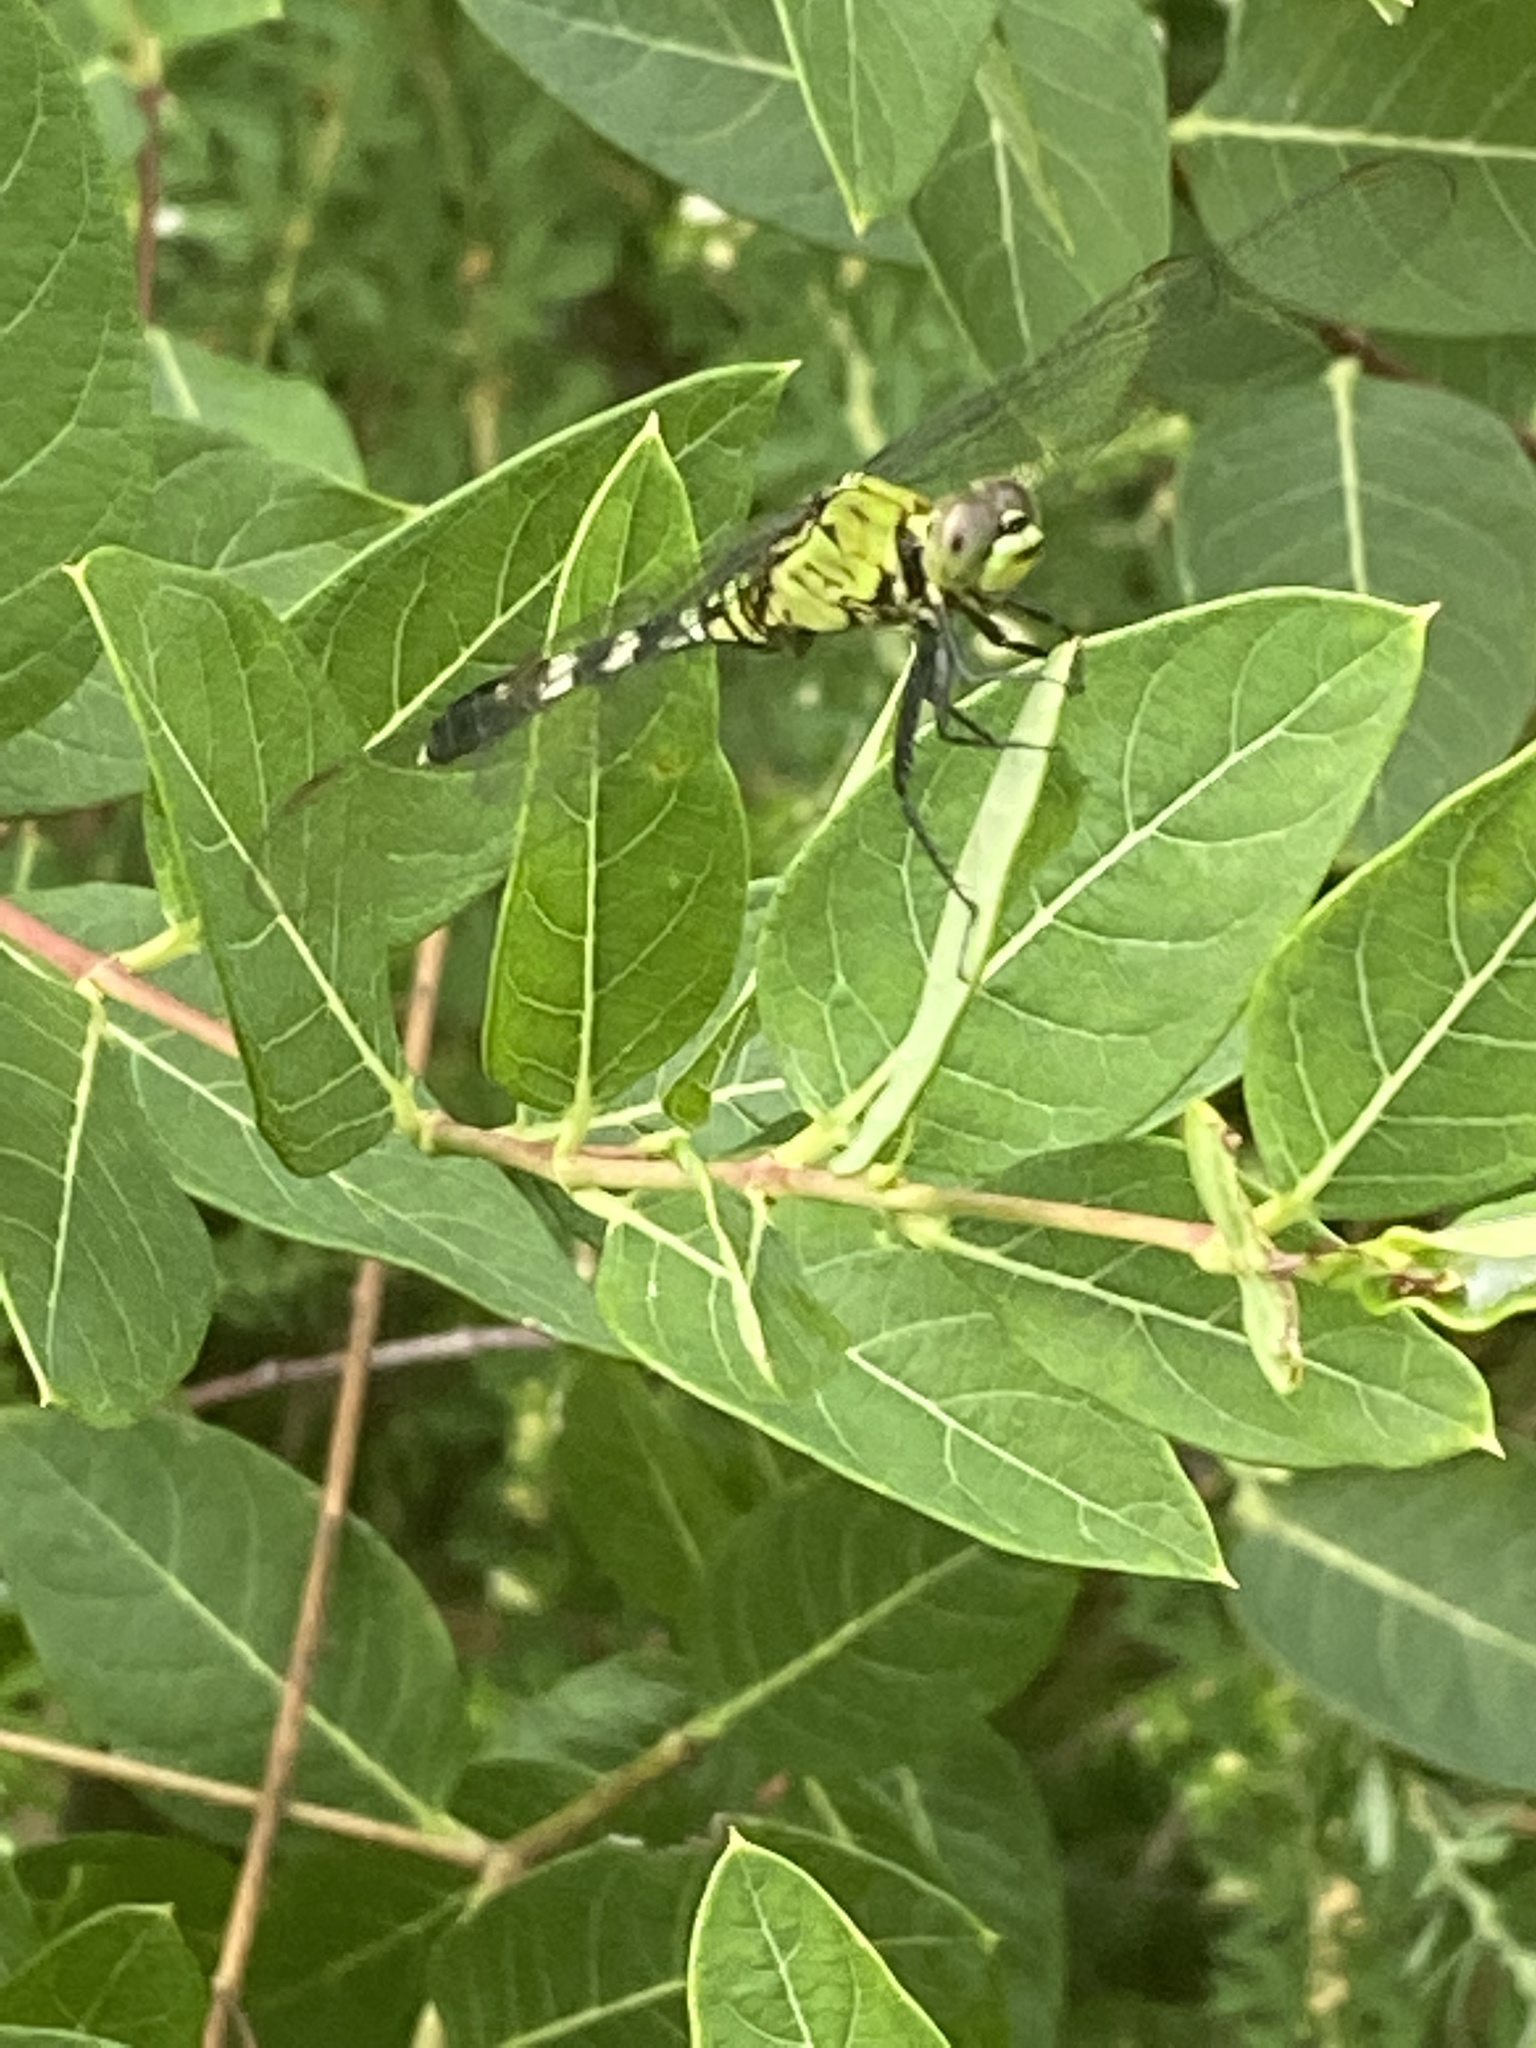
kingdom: Animalia
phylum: Arthropoda
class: Insecta
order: Odonata
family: Libellulidae
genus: Erythemis
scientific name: Erythemis simplicicollis
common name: Eastern pondhawk
